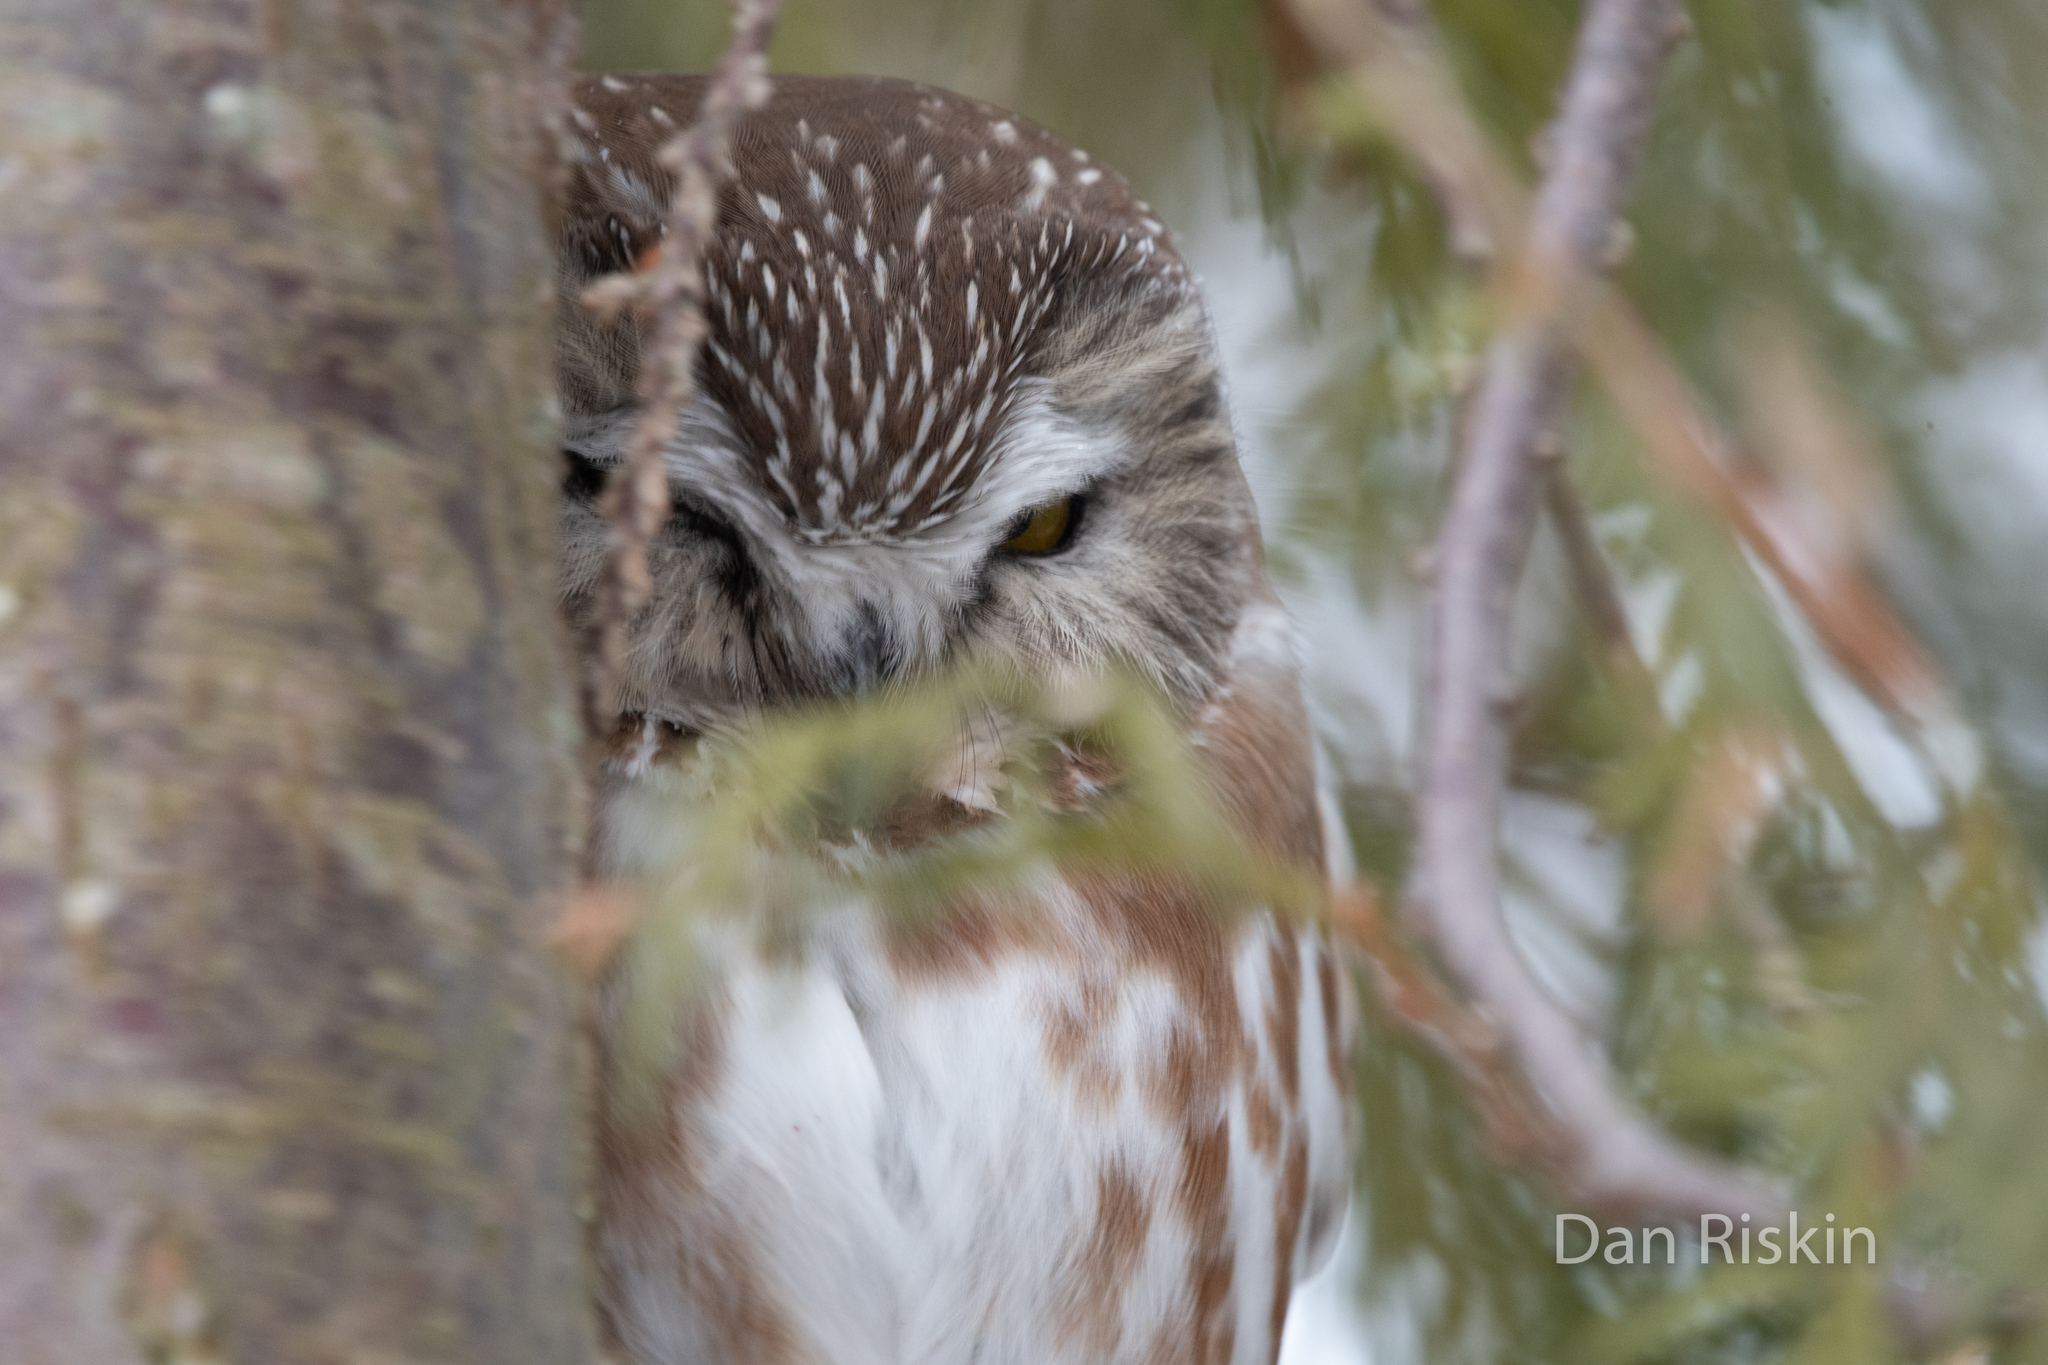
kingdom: Animalia
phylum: Chordata
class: Aves
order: Strigiformes
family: Strigidae
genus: Aegolius
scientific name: Aegolius acadicus
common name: Northern saw-whet owl
